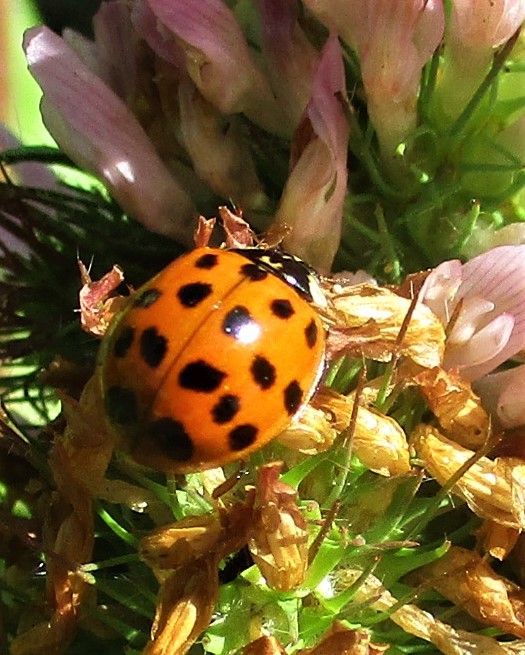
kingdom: Animalia
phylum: Arthropoda
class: Insecta
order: Coleoptera
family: Coccinellidae
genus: Harmonia
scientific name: Harmonia axyridis
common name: Harlequin ladybird
